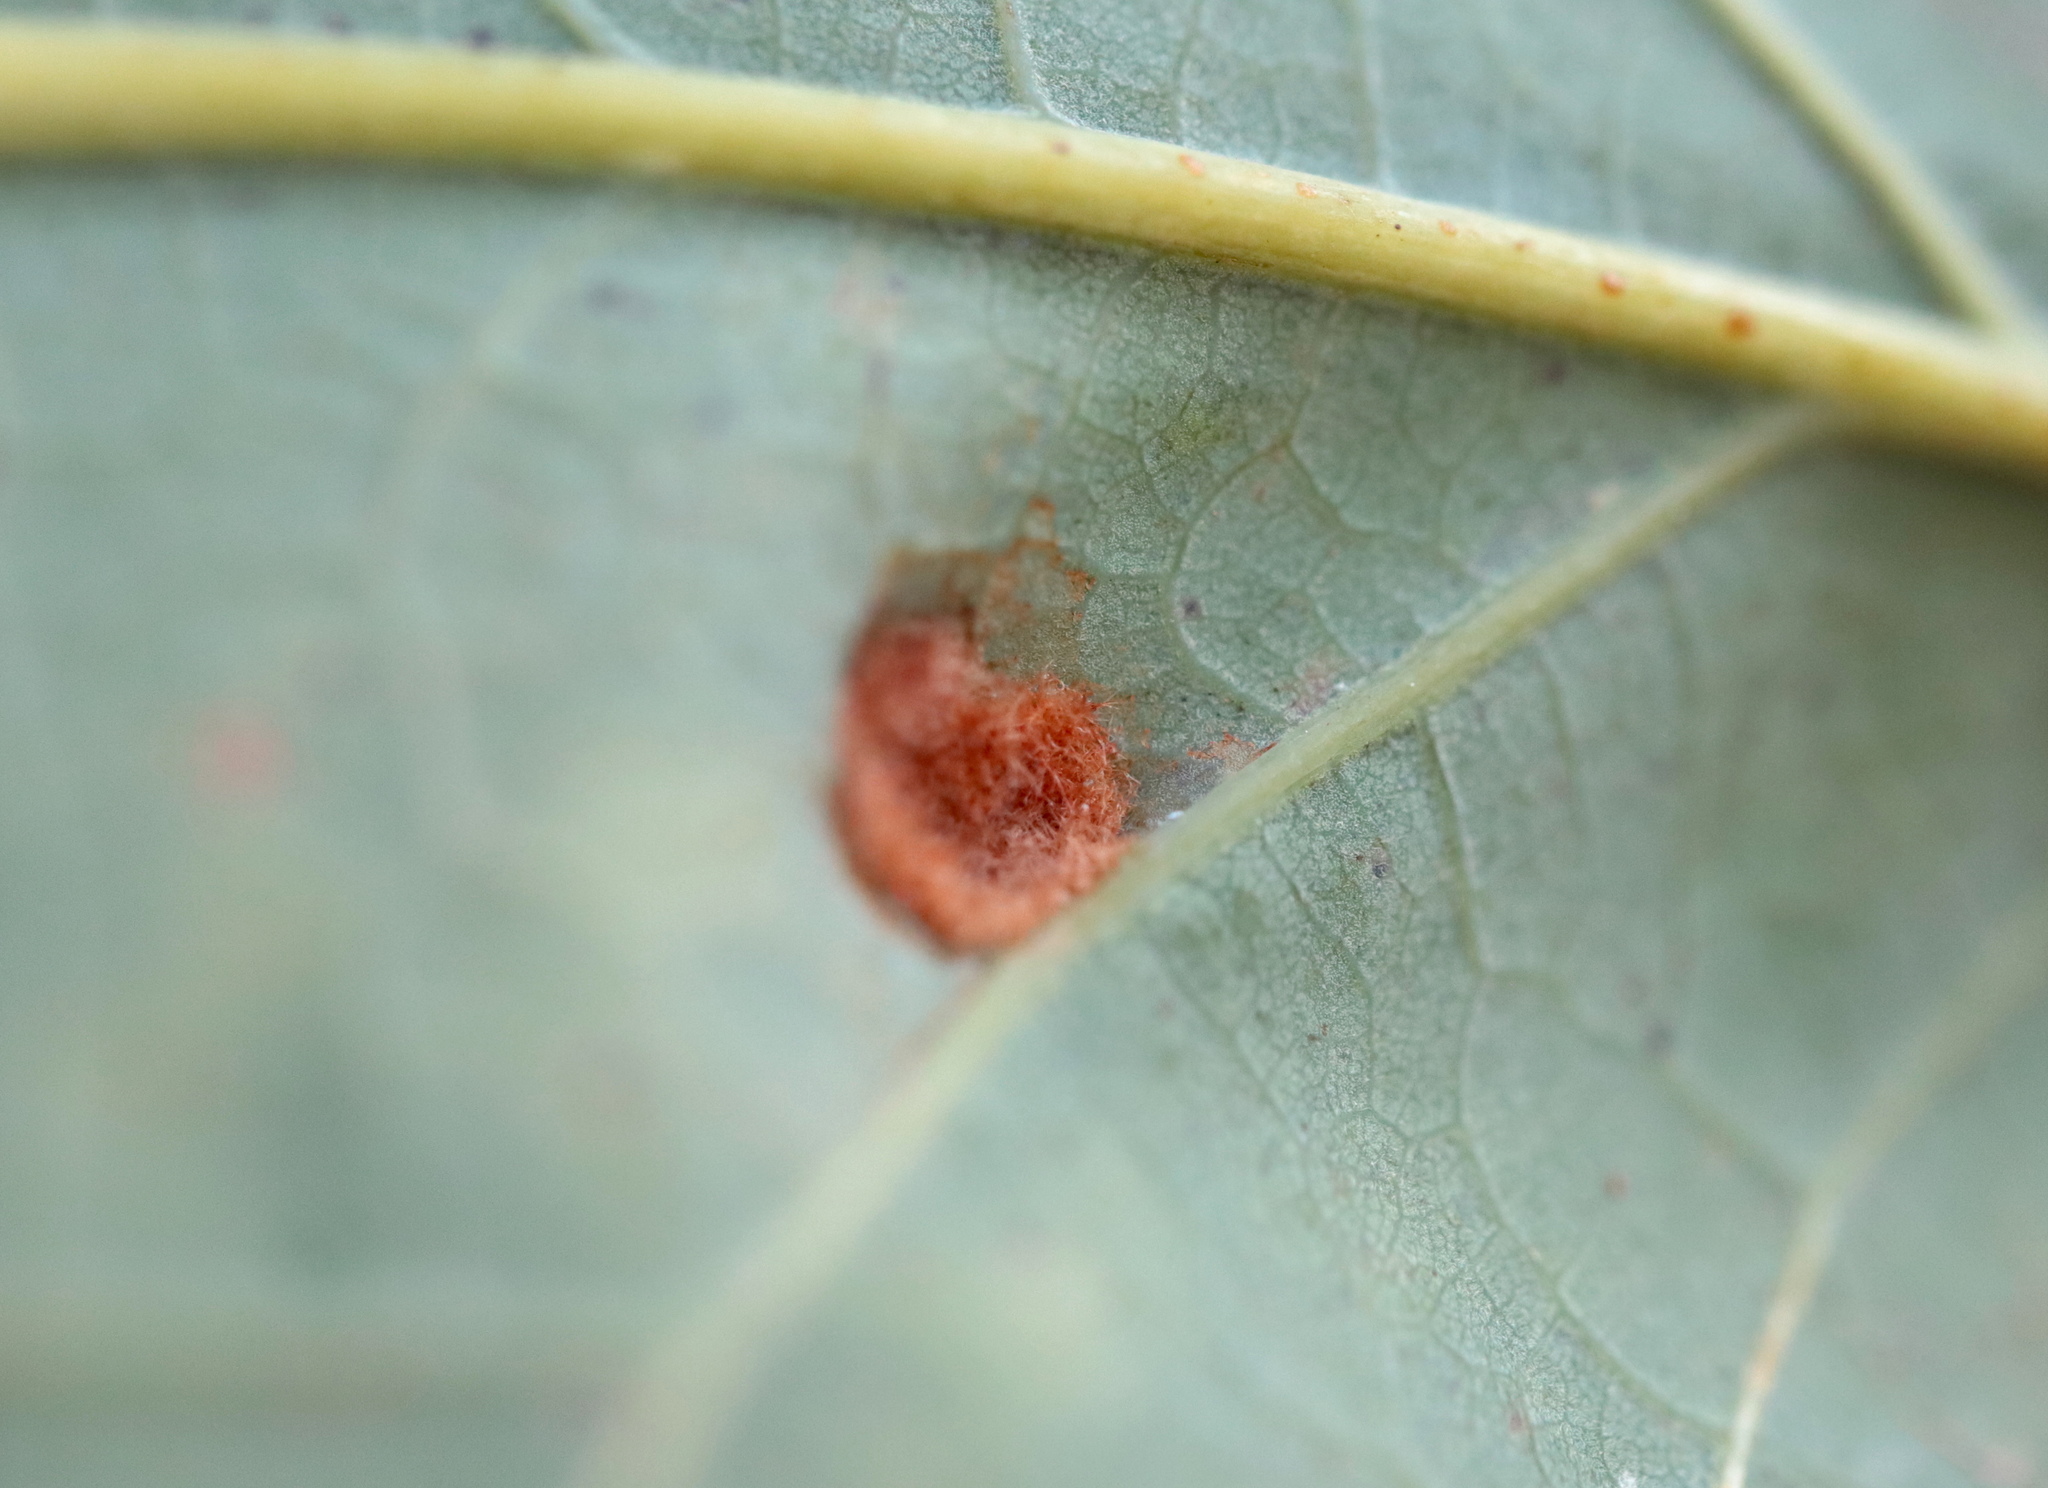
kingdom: Animalia
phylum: Arthropoda
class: Arachnida
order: Trombidiformes
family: Eriophyidae
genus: Aceria
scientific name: Aceria
